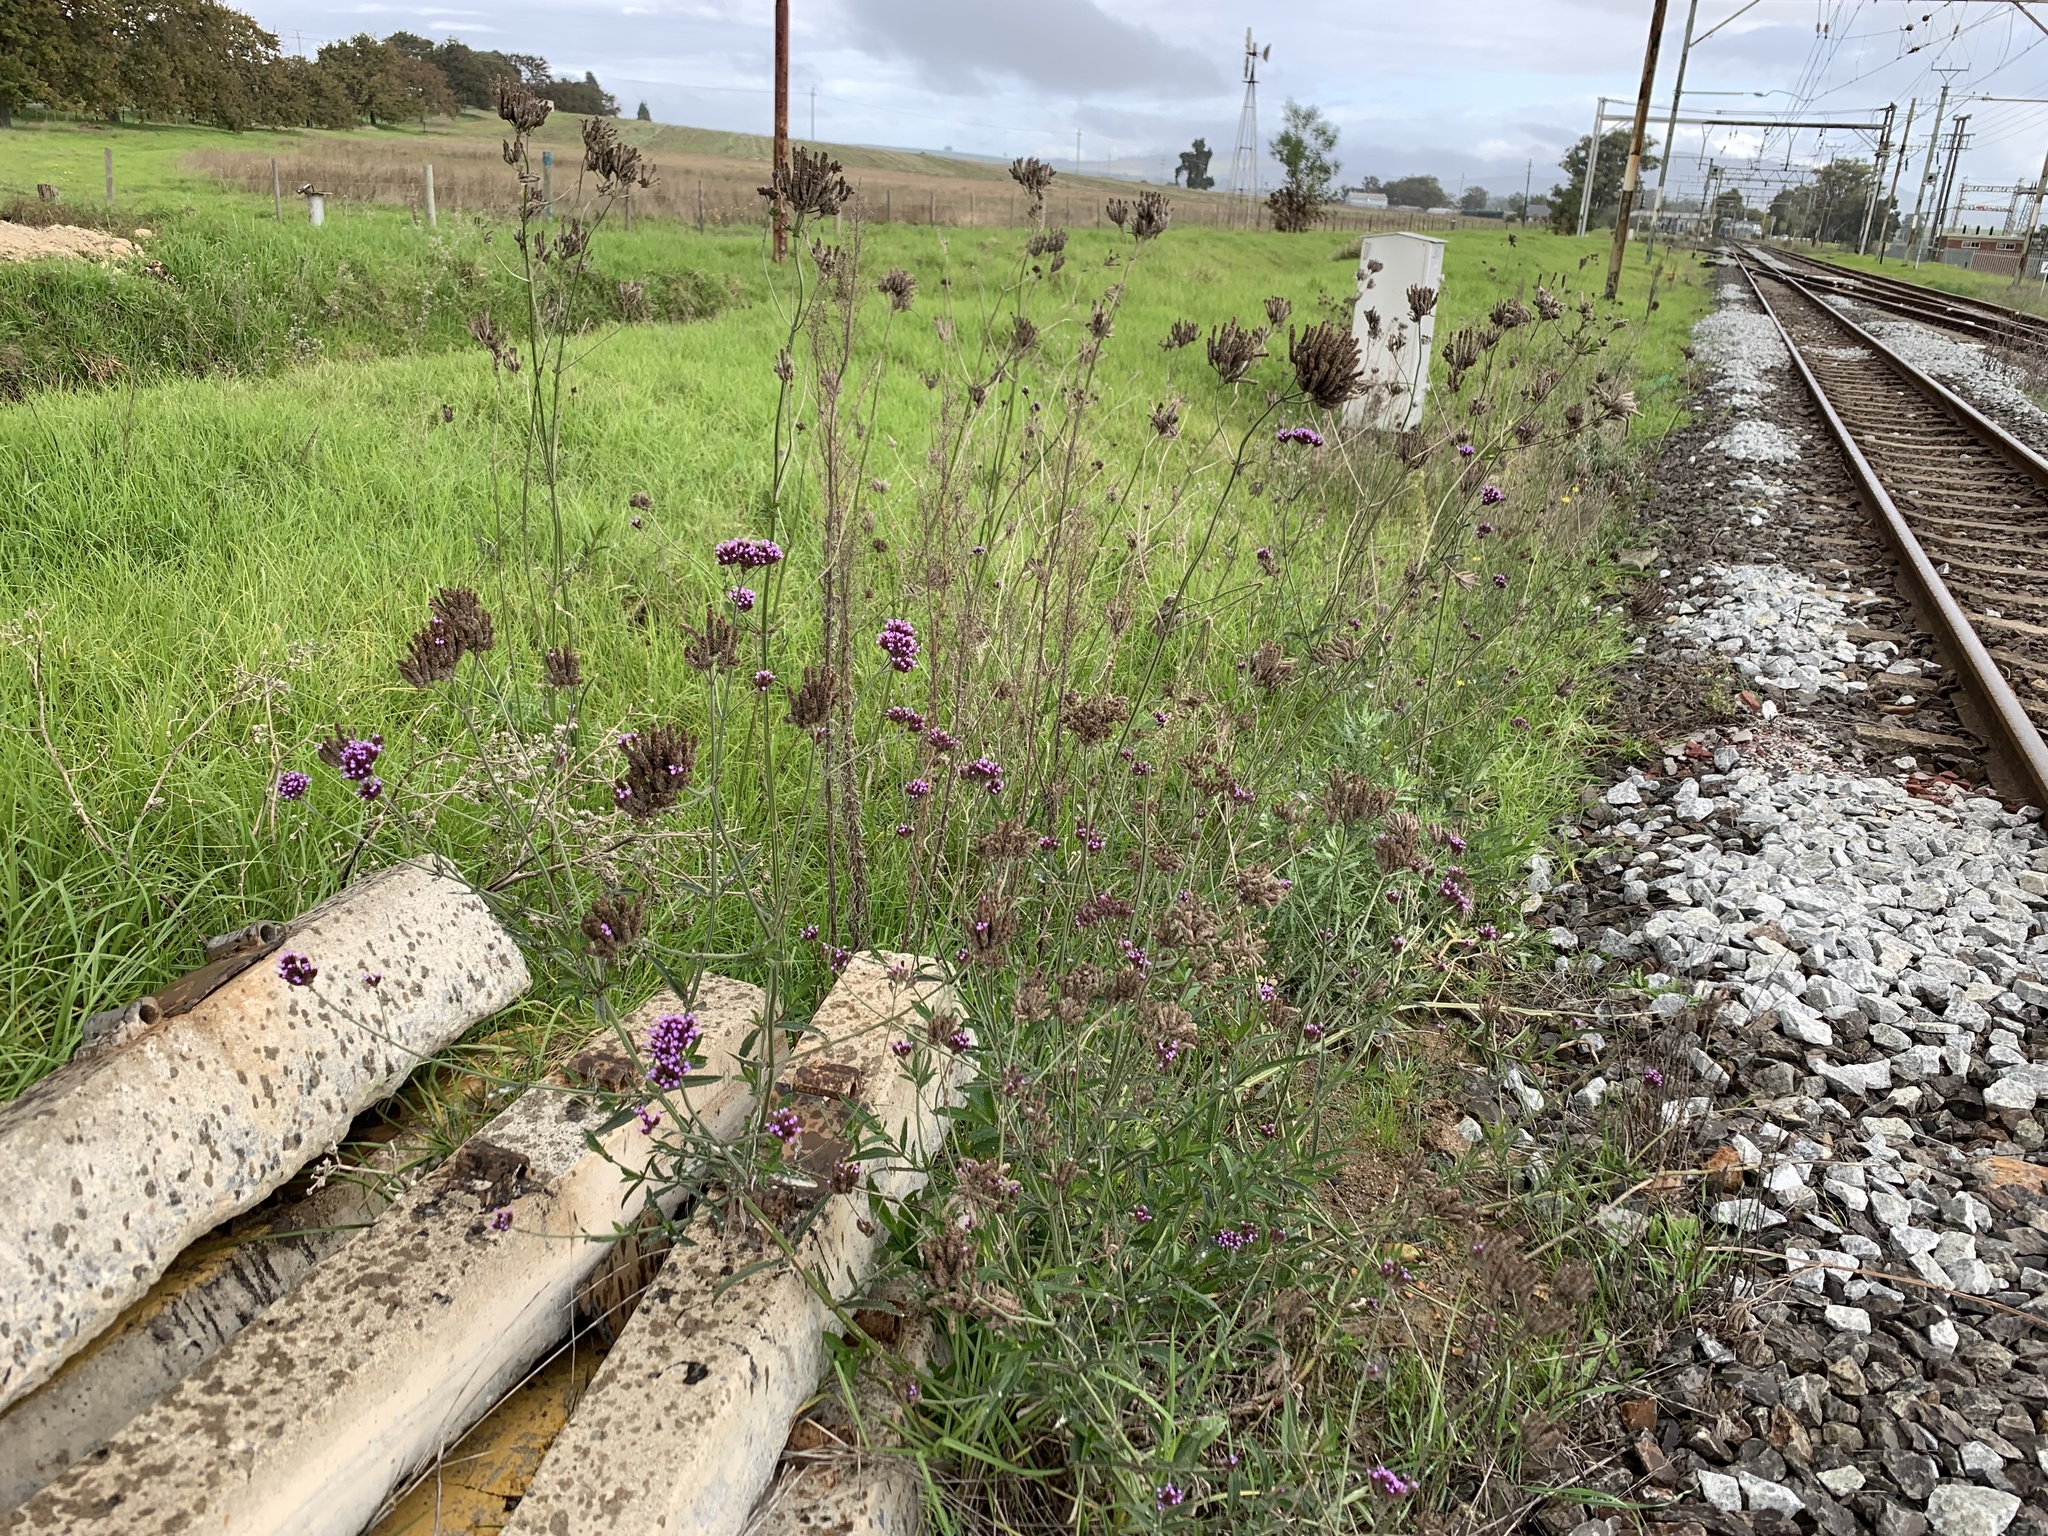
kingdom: Plantae
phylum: Tracheophyta
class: Magnoliopsida
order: Lamiales
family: Verbenaceae
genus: Verbena
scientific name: Verbena bonariensis
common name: Purpletop vervain
